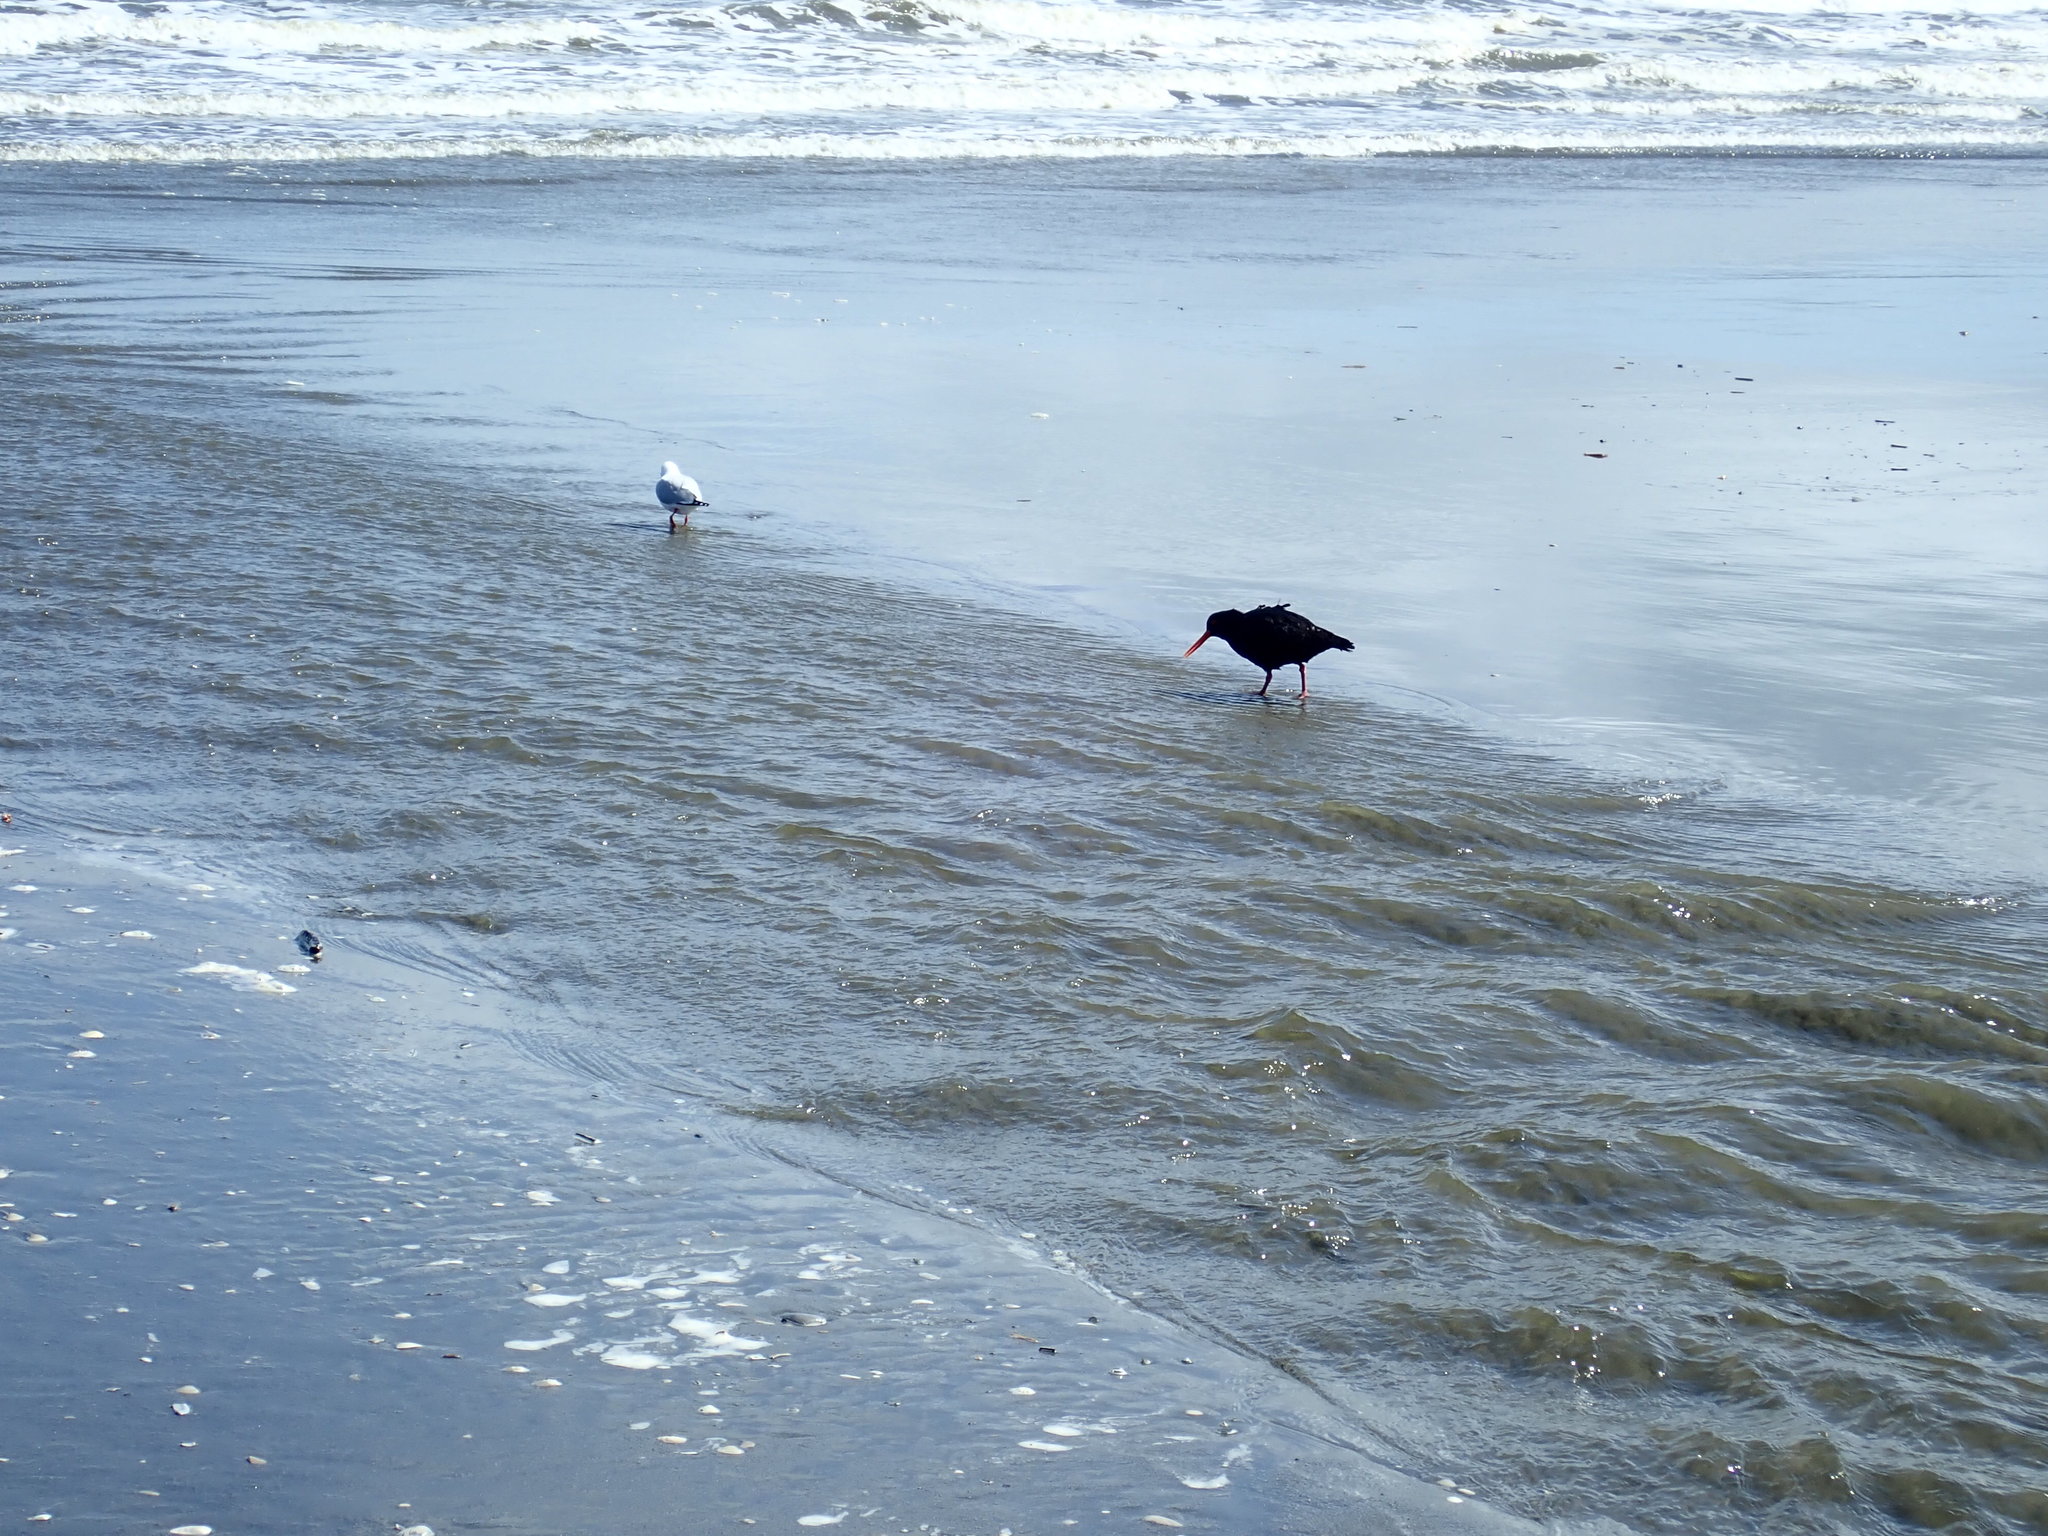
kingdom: Animalia
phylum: Chordata
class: Aves
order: Charadriiformes
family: Haematopodidae
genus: Haematopus
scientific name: Haematopus unicolor
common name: Variable oystercatcher
